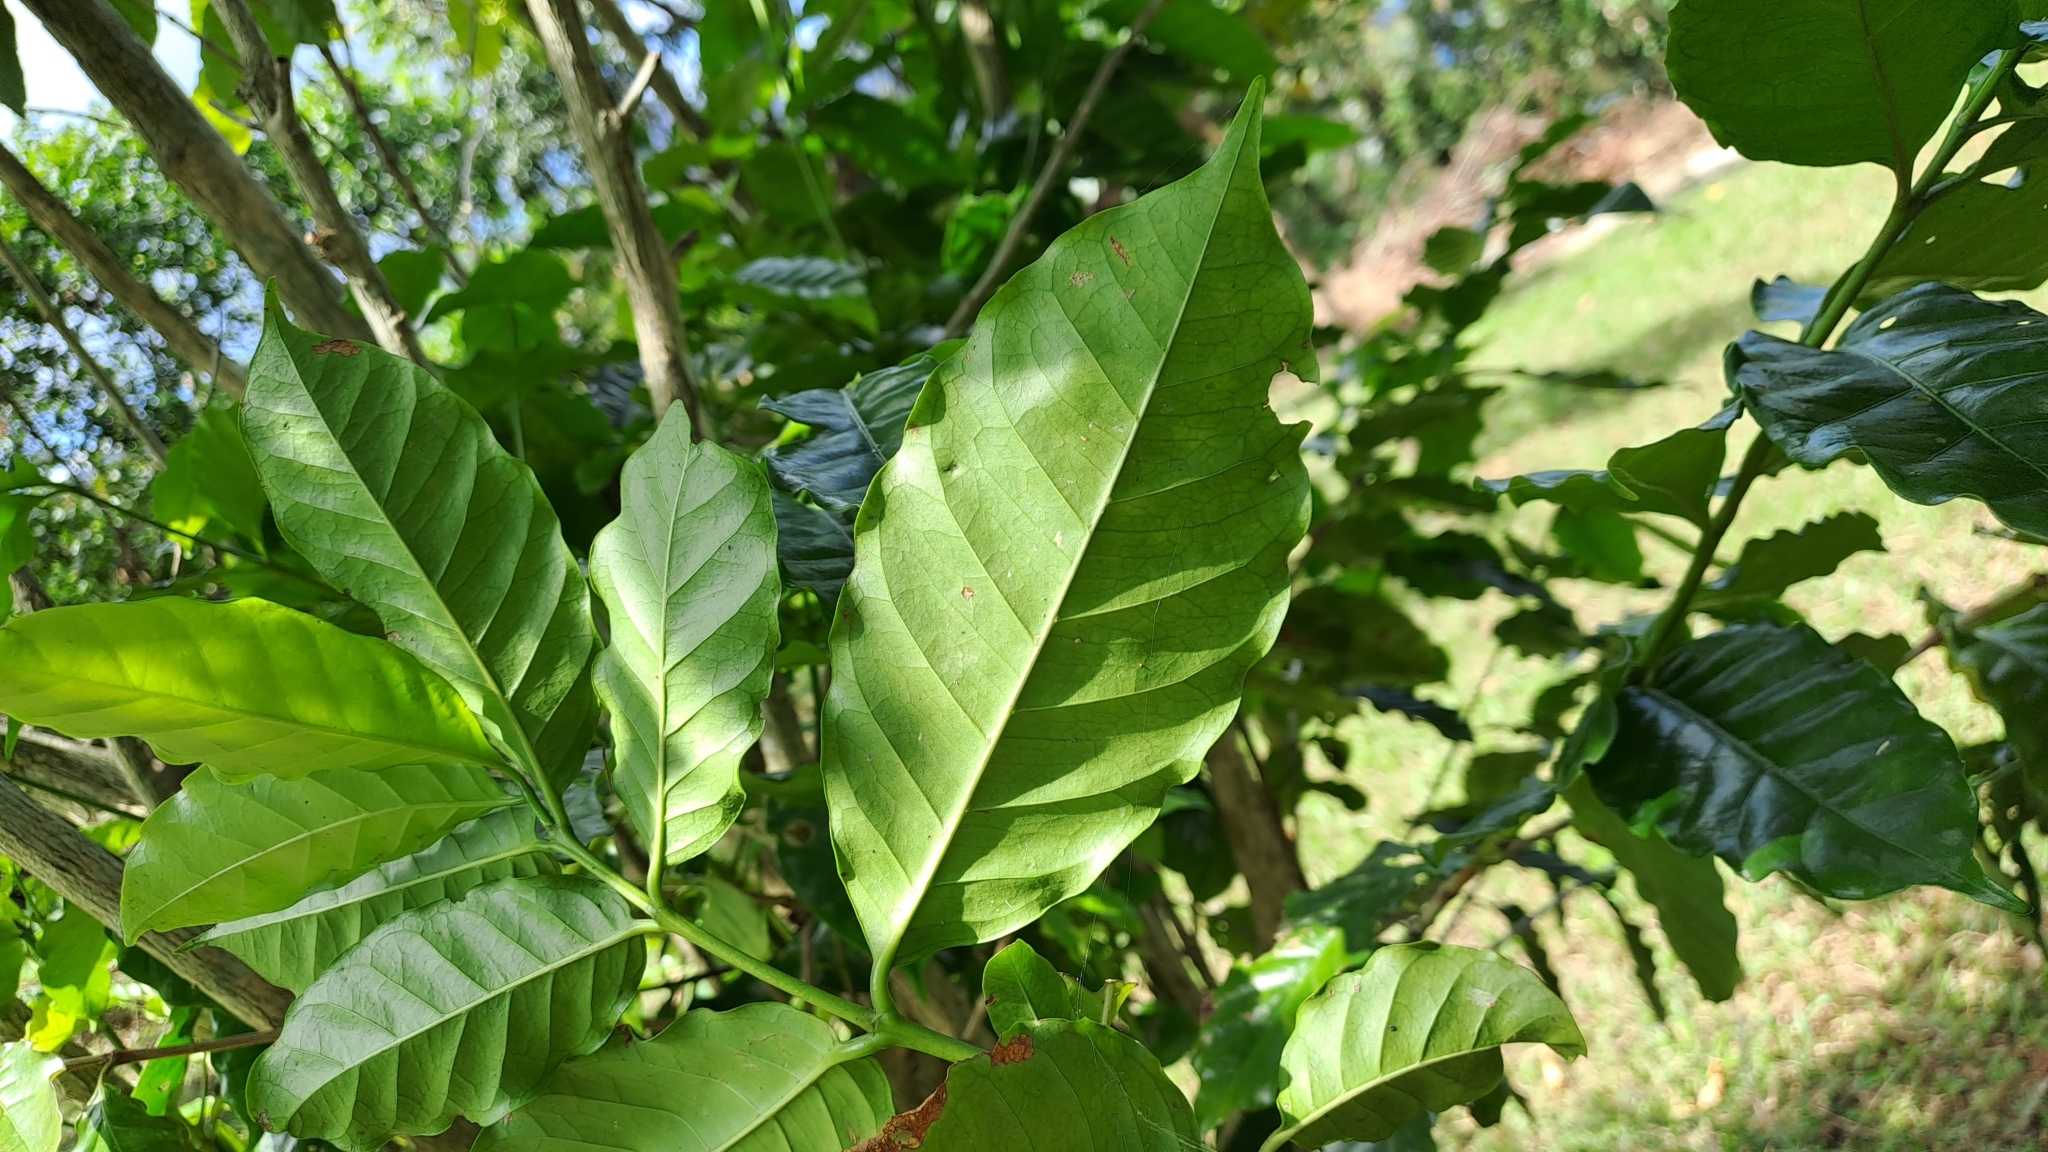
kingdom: Plantae
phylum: Tracheophyta
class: Magnoliopsida
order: Gentianales
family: Rubiaceae
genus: Coffea
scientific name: Coffea arabica
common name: Coffee
